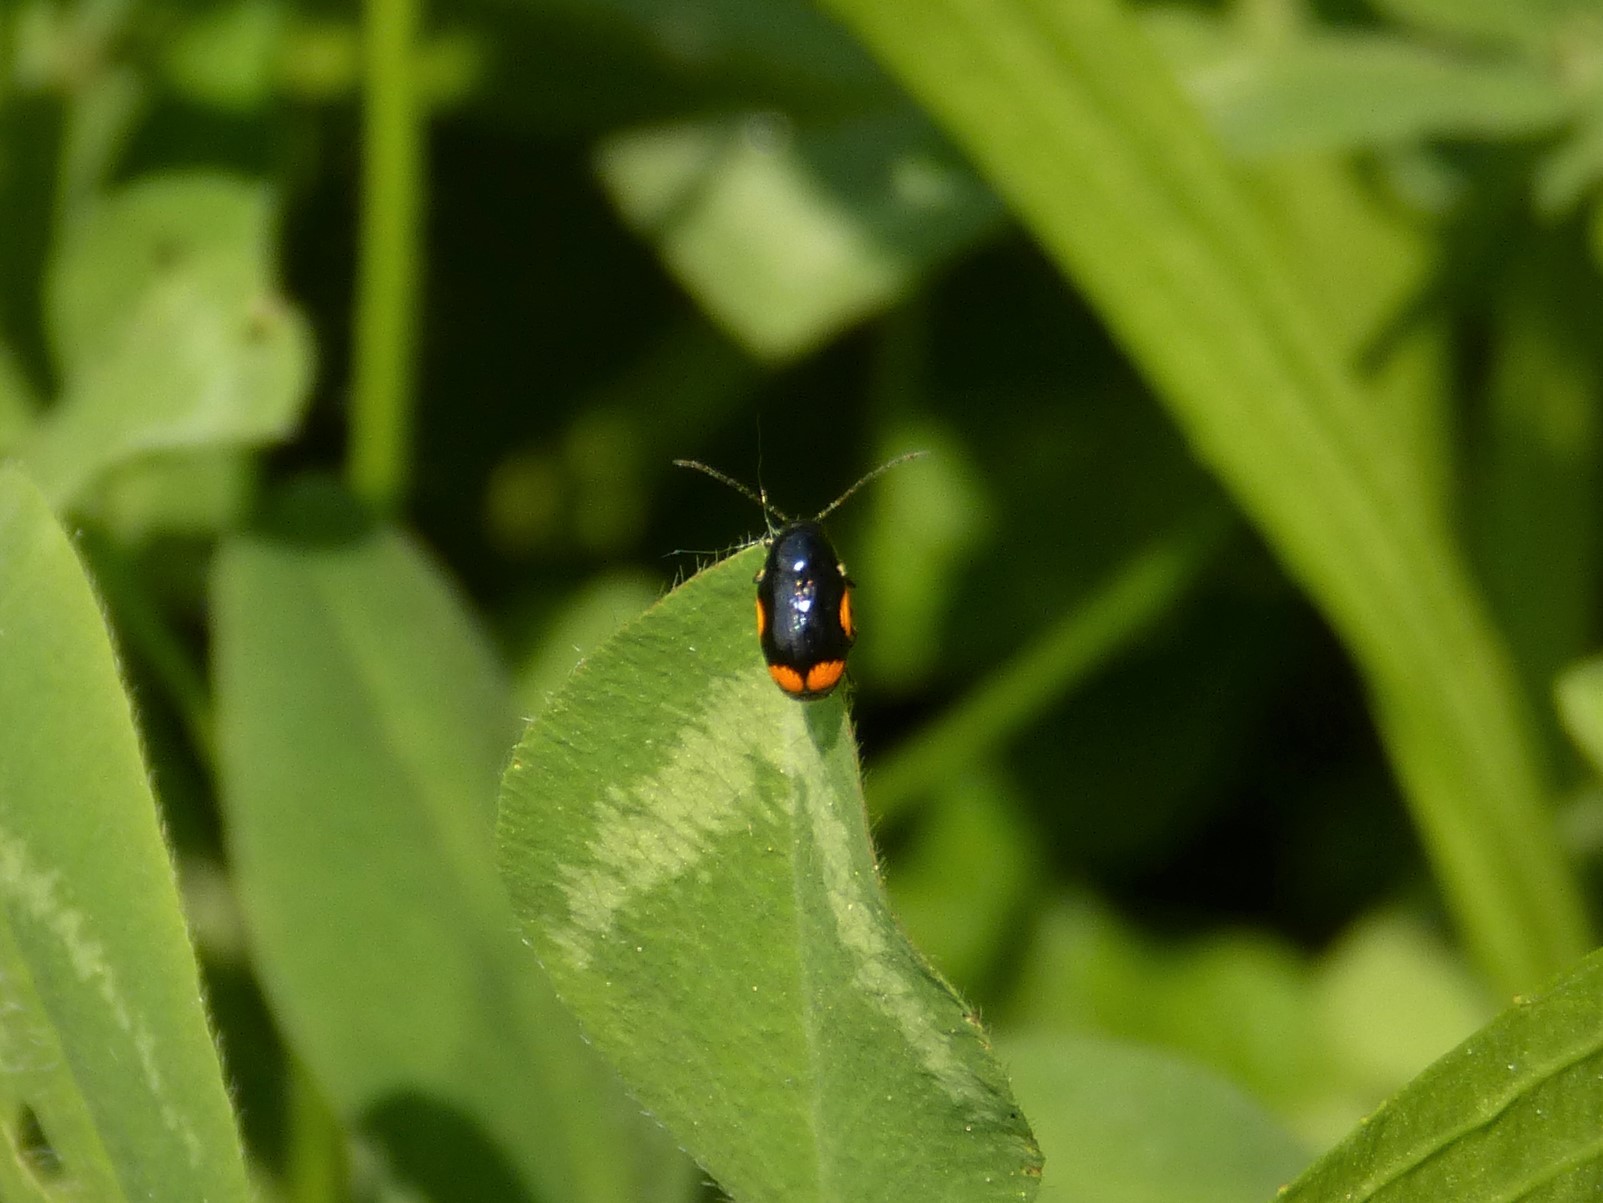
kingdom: Animalia
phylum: Arthropoda
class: Insecta
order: Coleoptera
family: Chrysomelidae
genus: Cryptocephalus
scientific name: Cryptocephalus moraei
